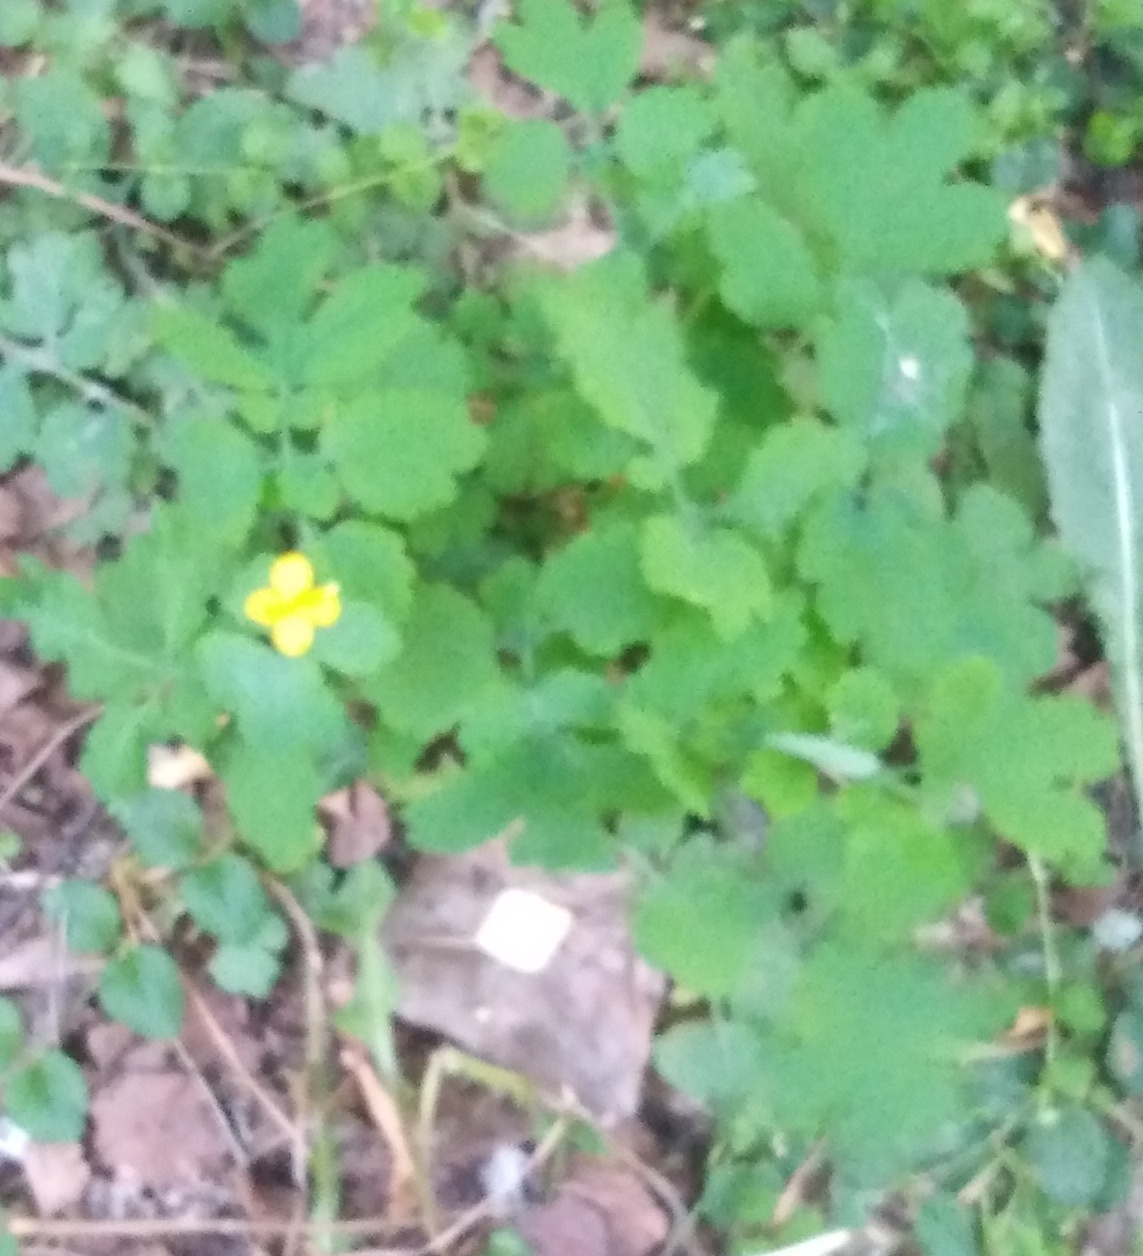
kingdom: Plantae
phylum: Tracheophyta
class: Magnoliopsida
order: Ranunculales
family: Papaveraceae
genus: Chelidonium
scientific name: Chelidonium majus
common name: Greater celandine
